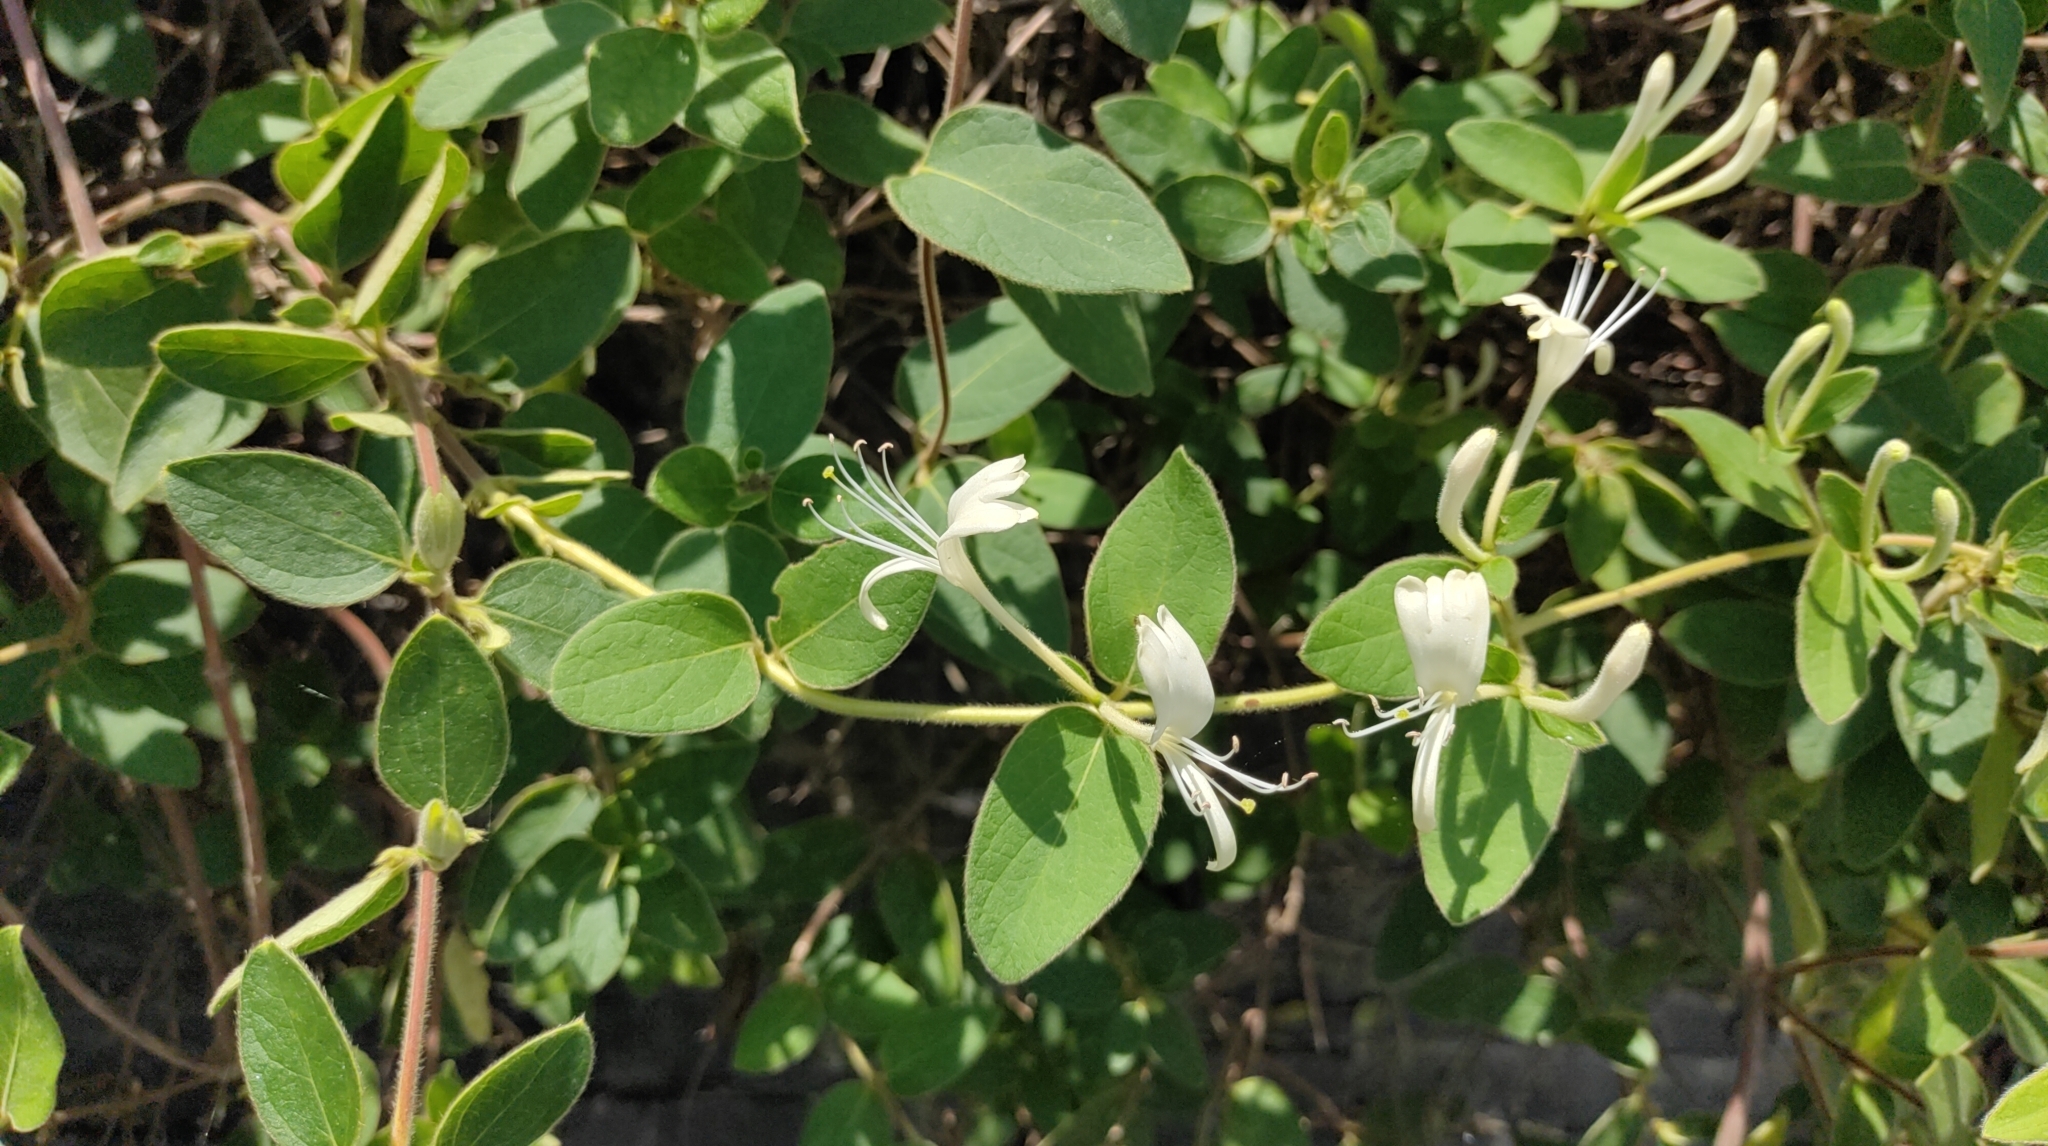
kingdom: Plantae
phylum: Tracheophyta
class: Magnoliopsida
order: Dipsacales
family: Caprifoliaceae
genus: Lonicera
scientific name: Lonicera japonica
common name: Japanese honeysuckle
